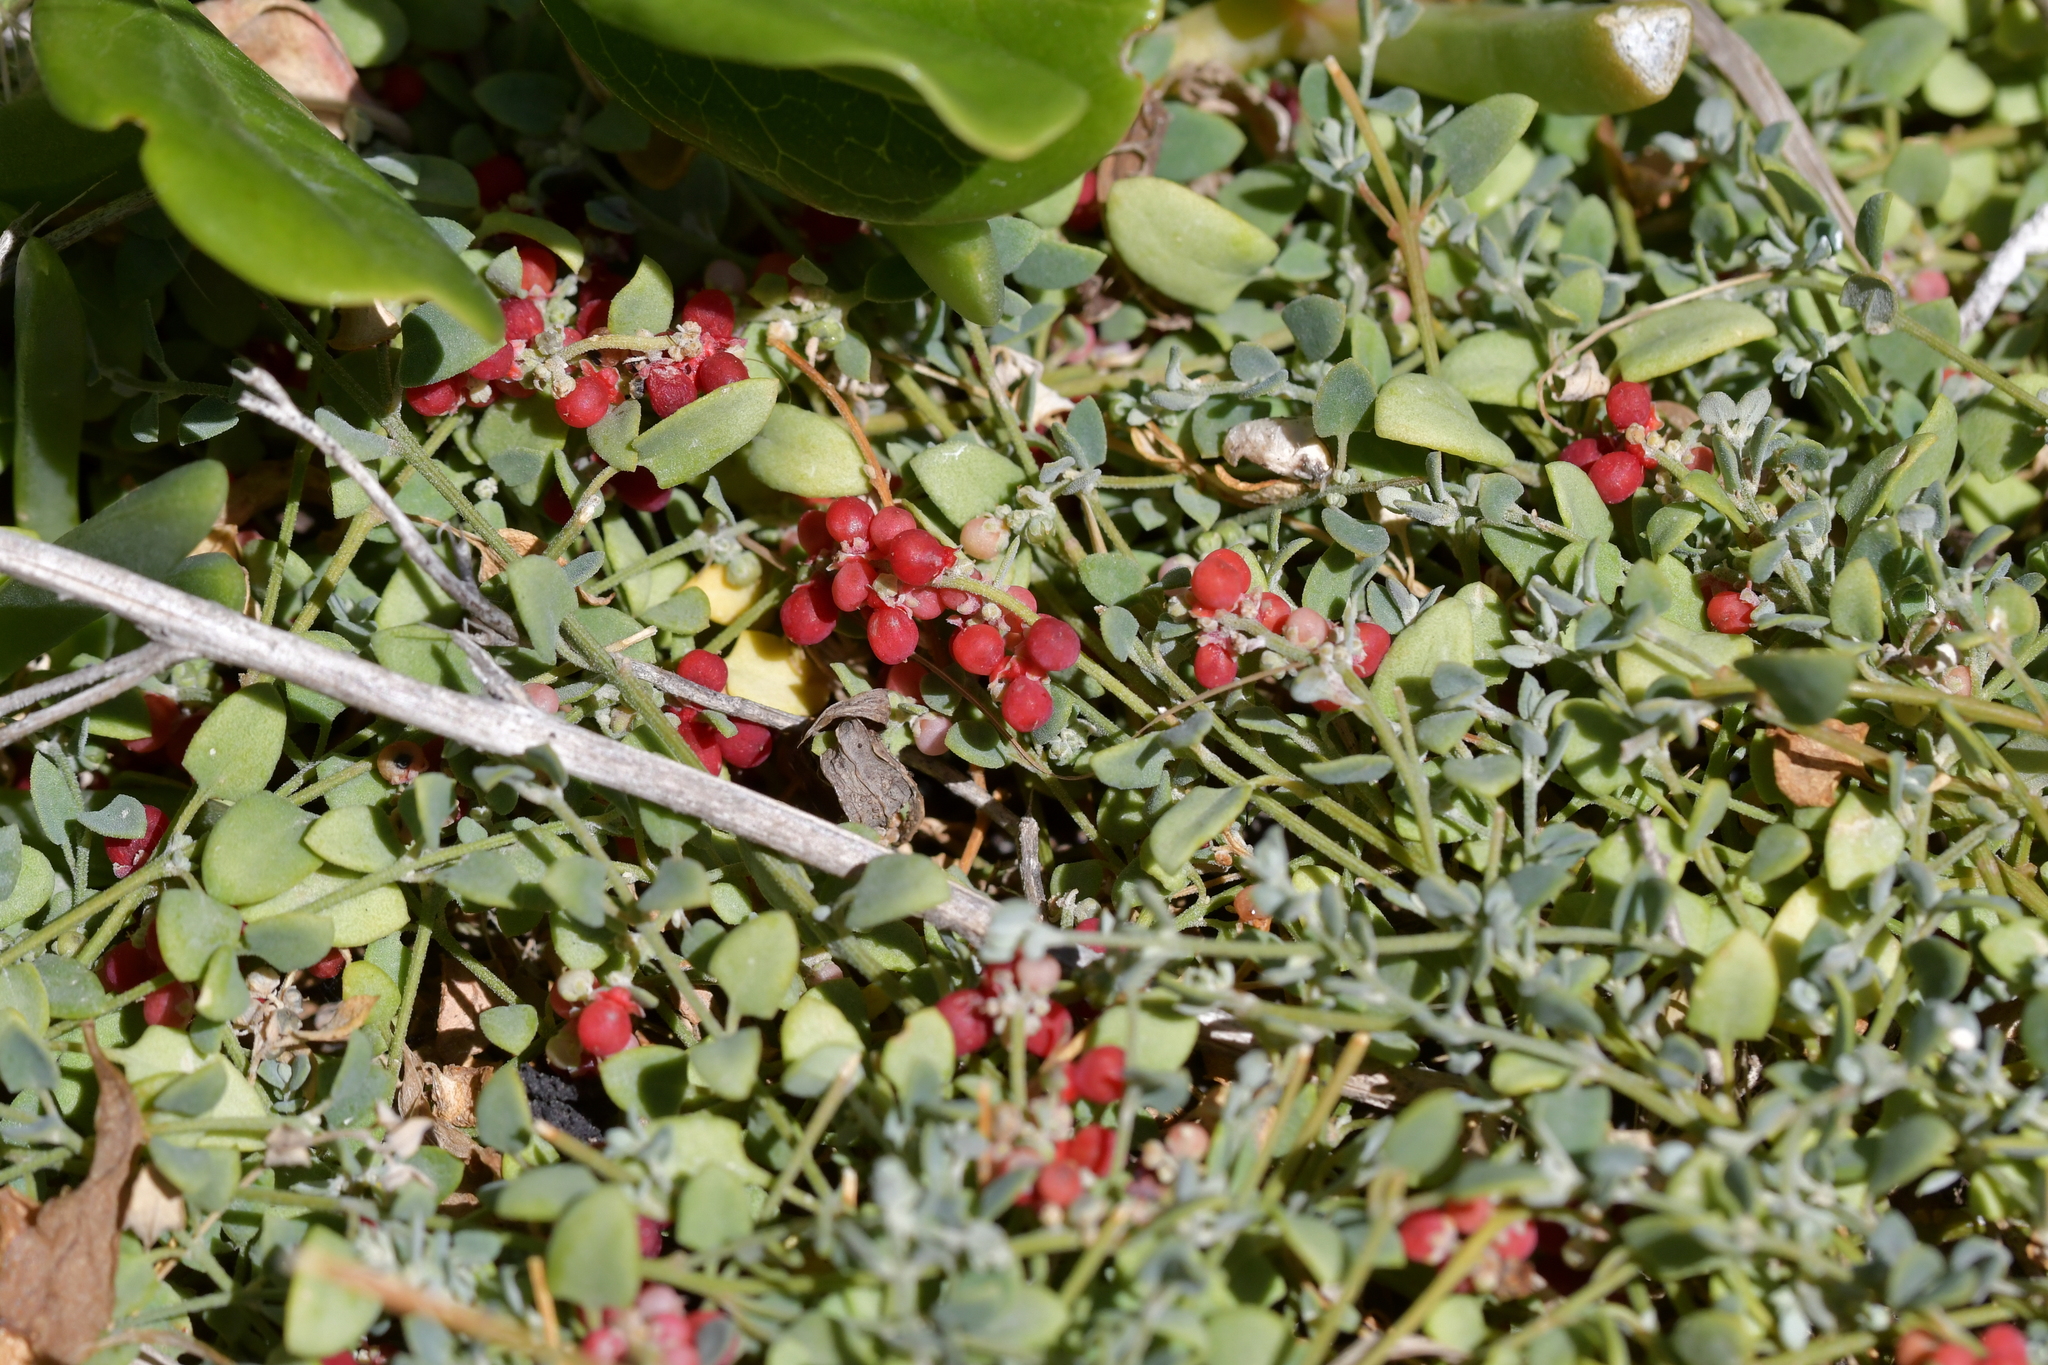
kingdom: Plantae
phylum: Tracheophyta
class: Magnoliopsida
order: Caryophyllales
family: Amaranthaceae
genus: Chenopodium
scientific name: Chenopodium triandrum
